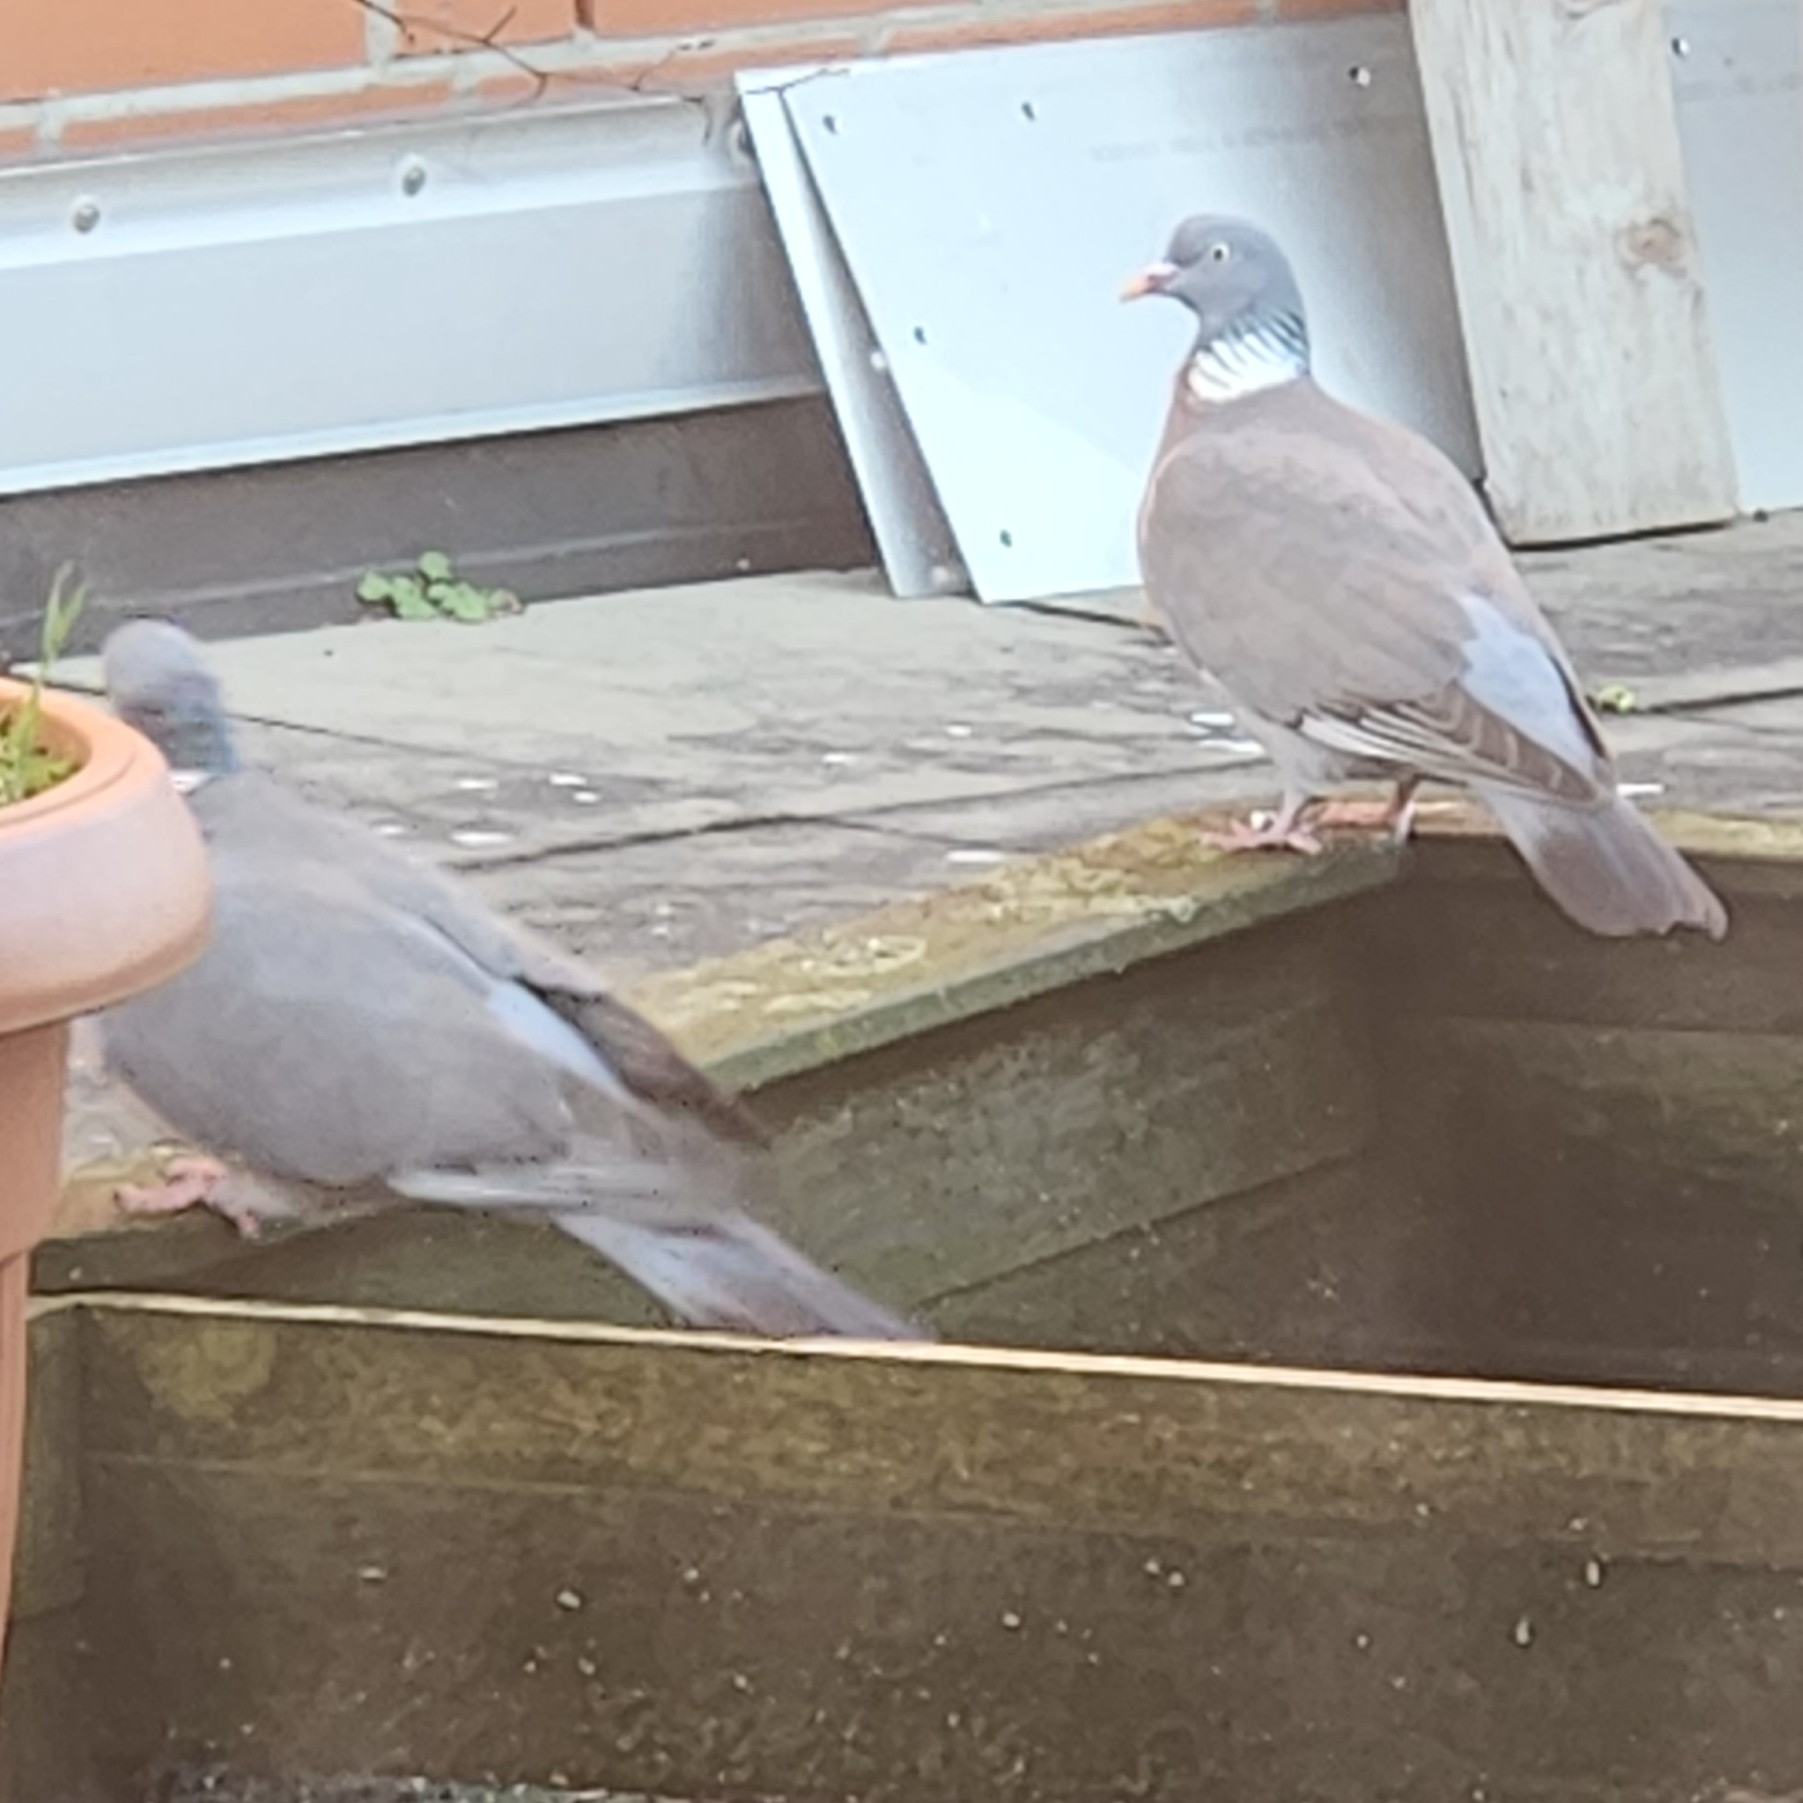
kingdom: Animalia
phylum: Chordata
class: Aves
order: Columbiformes
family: Columbidae
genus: Columba
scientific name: Columba palumbus
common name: Common wood pigeon
